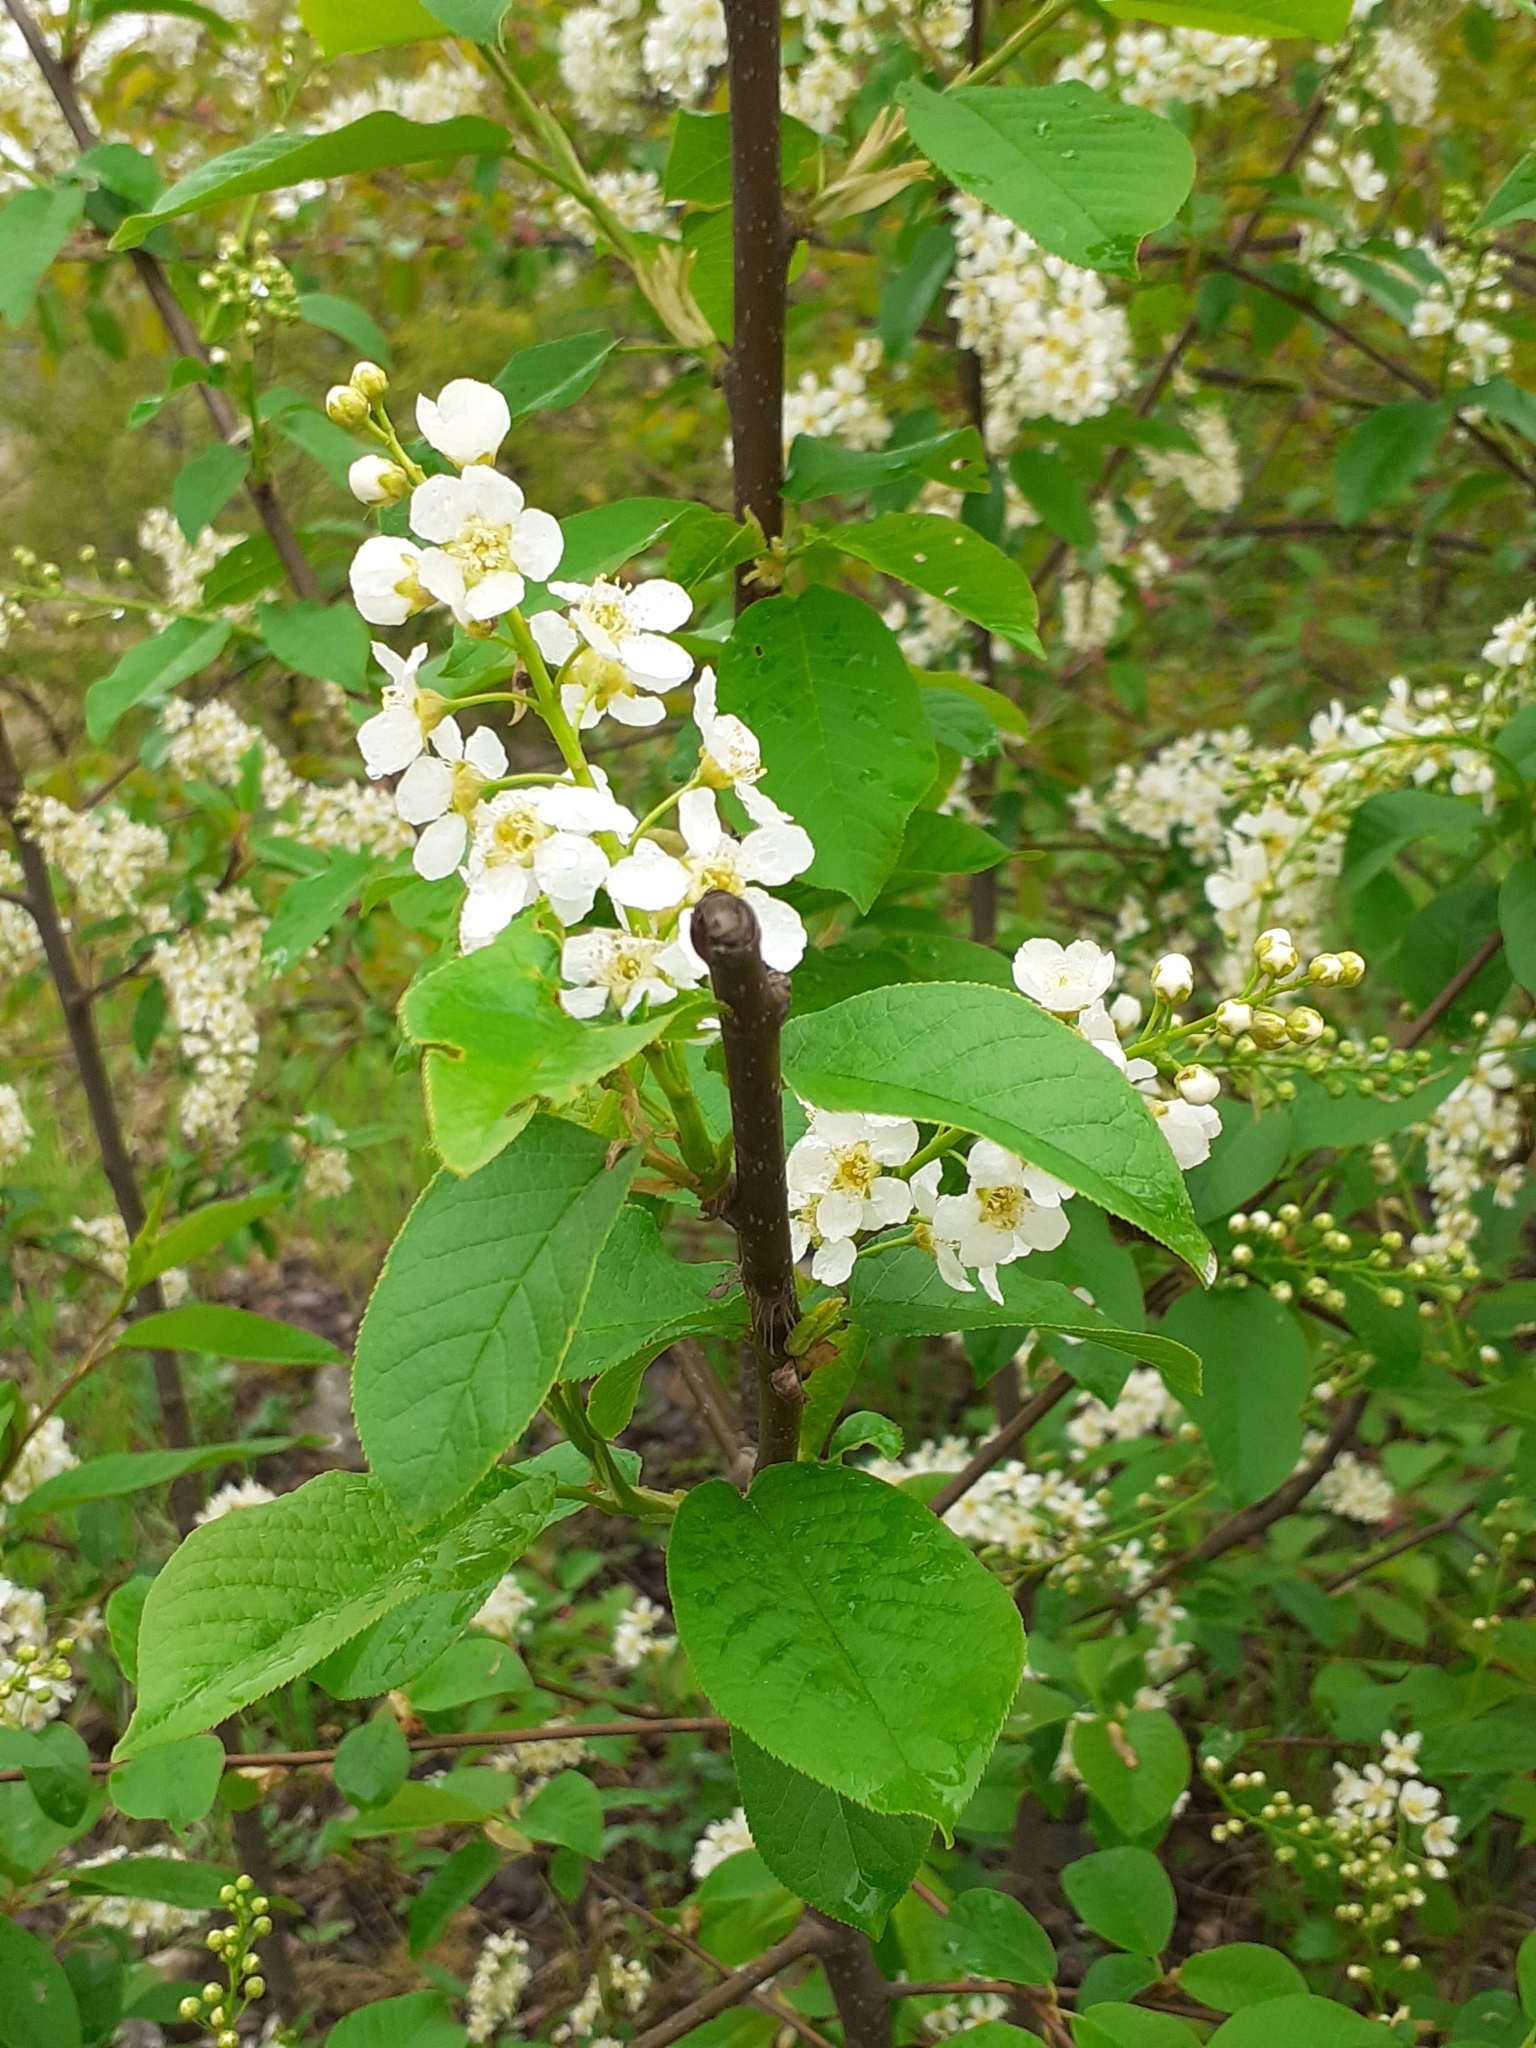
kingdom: Plantae
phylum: Tracheophyta
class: Magnoliopsida
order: Rosales
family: Rosaceae
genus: Prunus
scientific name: Prunus padus
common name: Bird cherry
